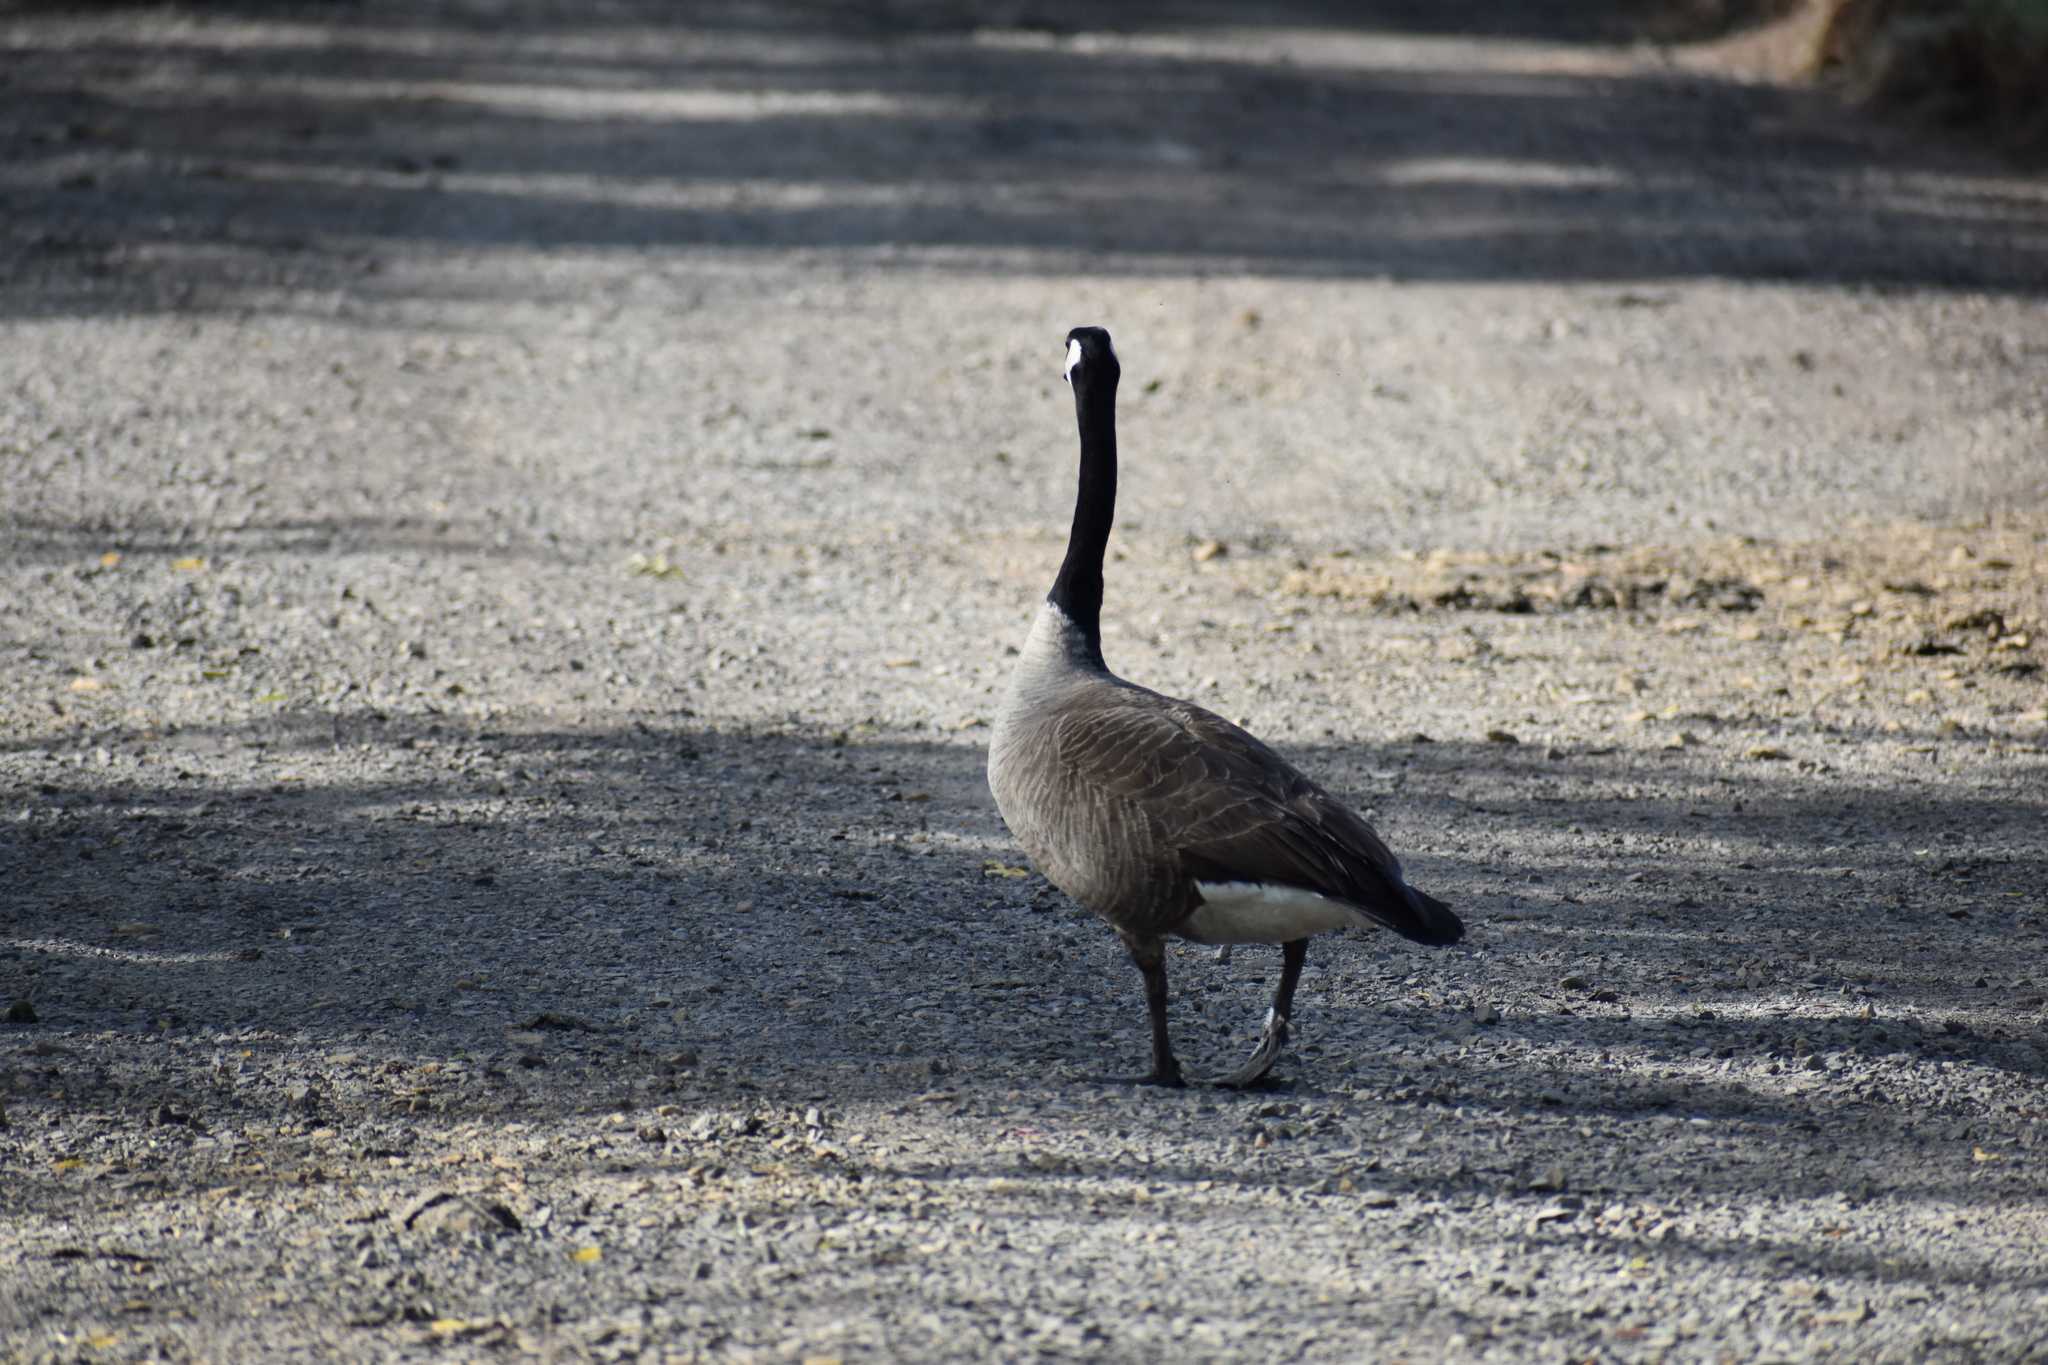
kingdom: Animalia
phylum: Chordata
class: Aves
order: Anseriformes
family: Anatidae
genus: Branta
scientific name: Branta canadensis
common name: Canada goose
